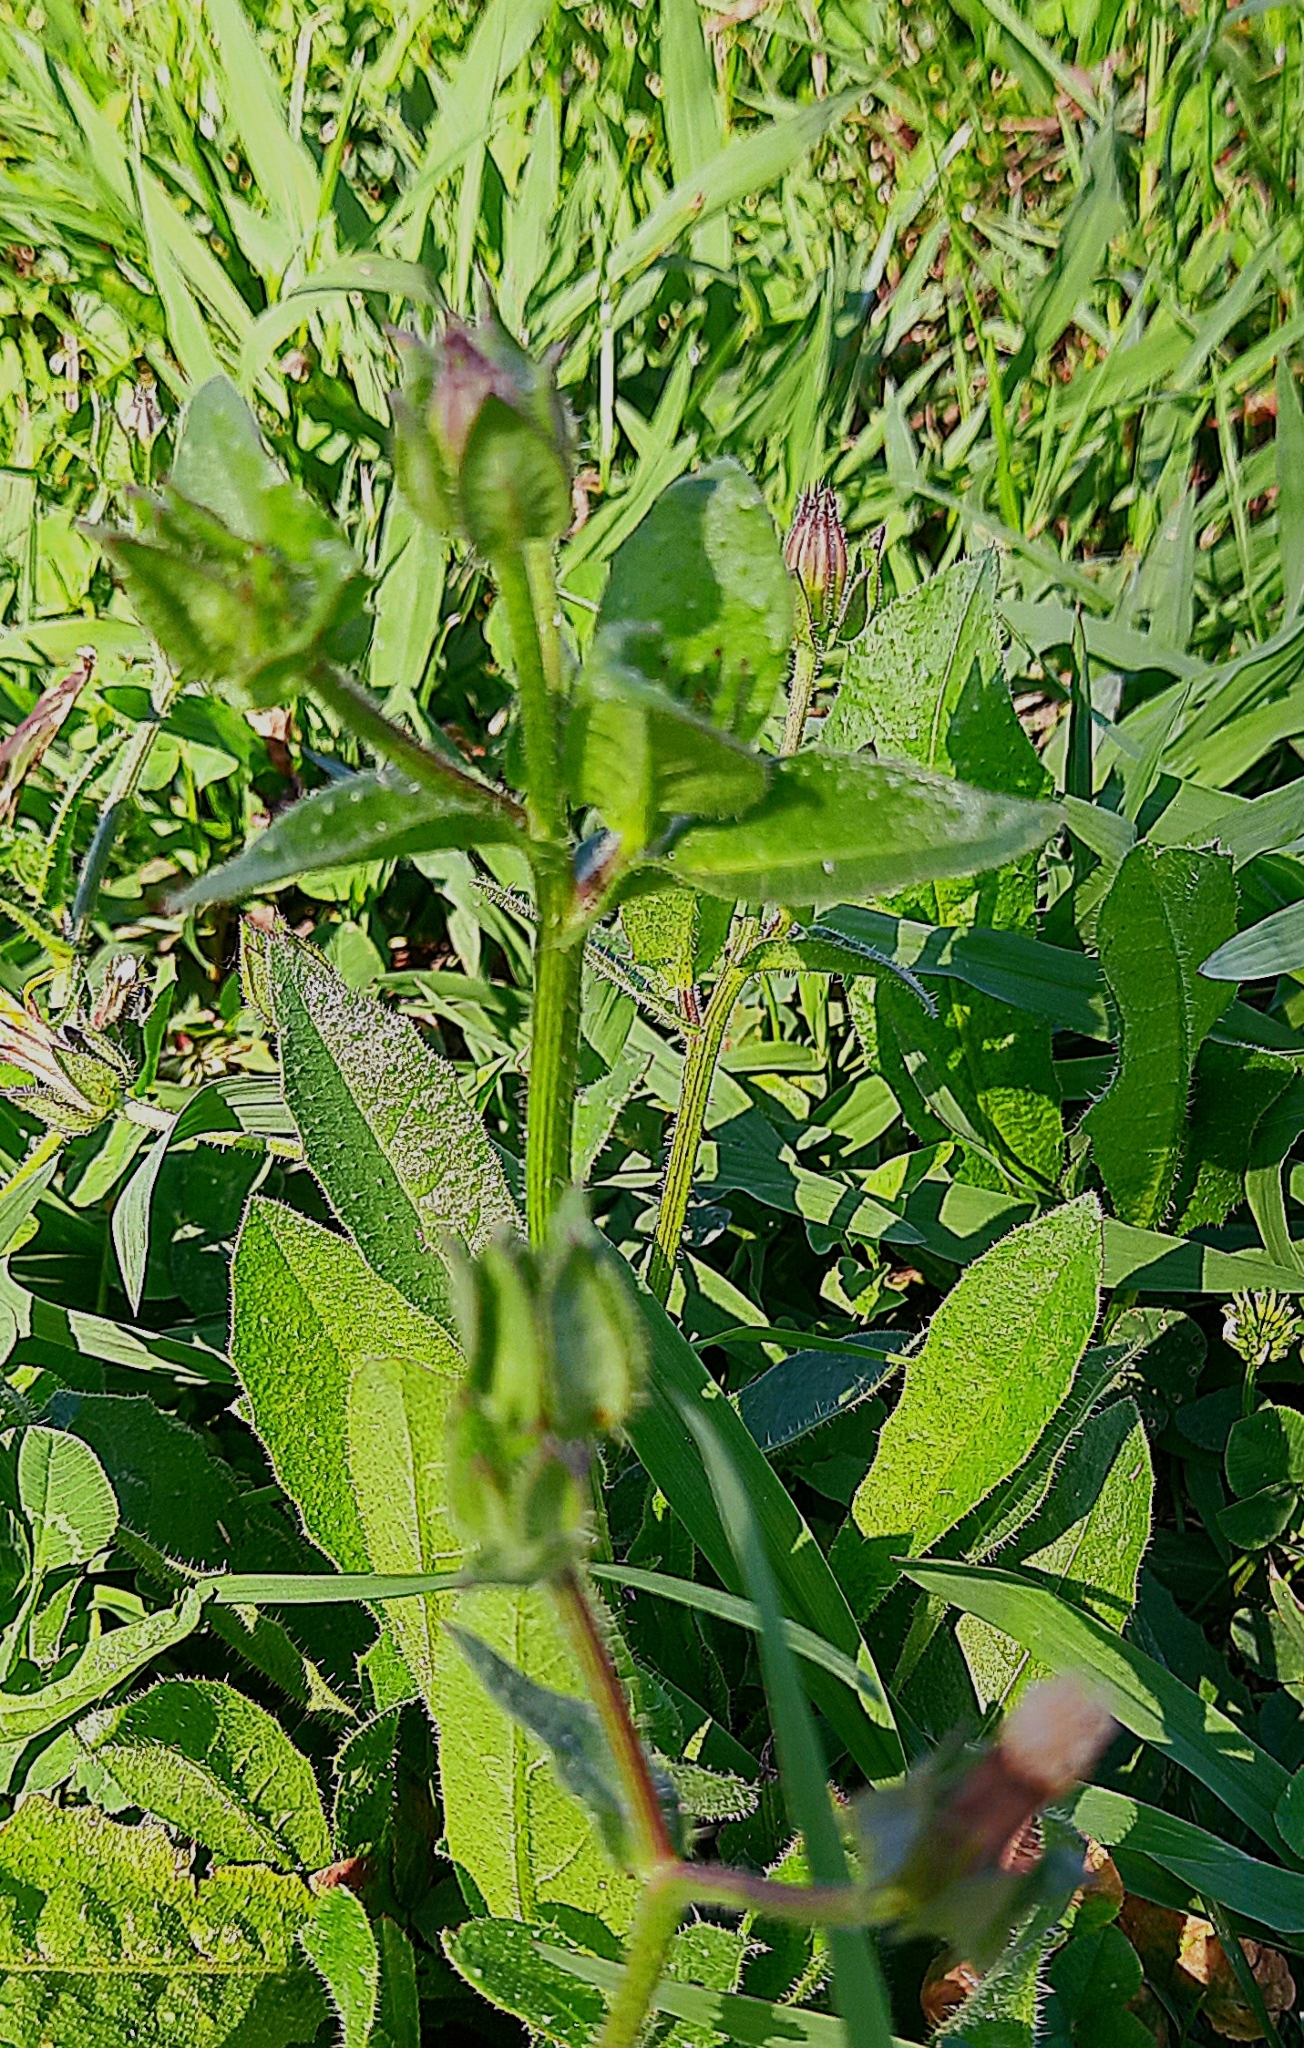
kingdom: Plantae
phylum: Tracheophyta
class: Magnoliopsida
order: Asterales
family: Asteraceae
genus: Helminthotheca
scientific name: Helminthotheca echioides
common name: Ox-tongue
